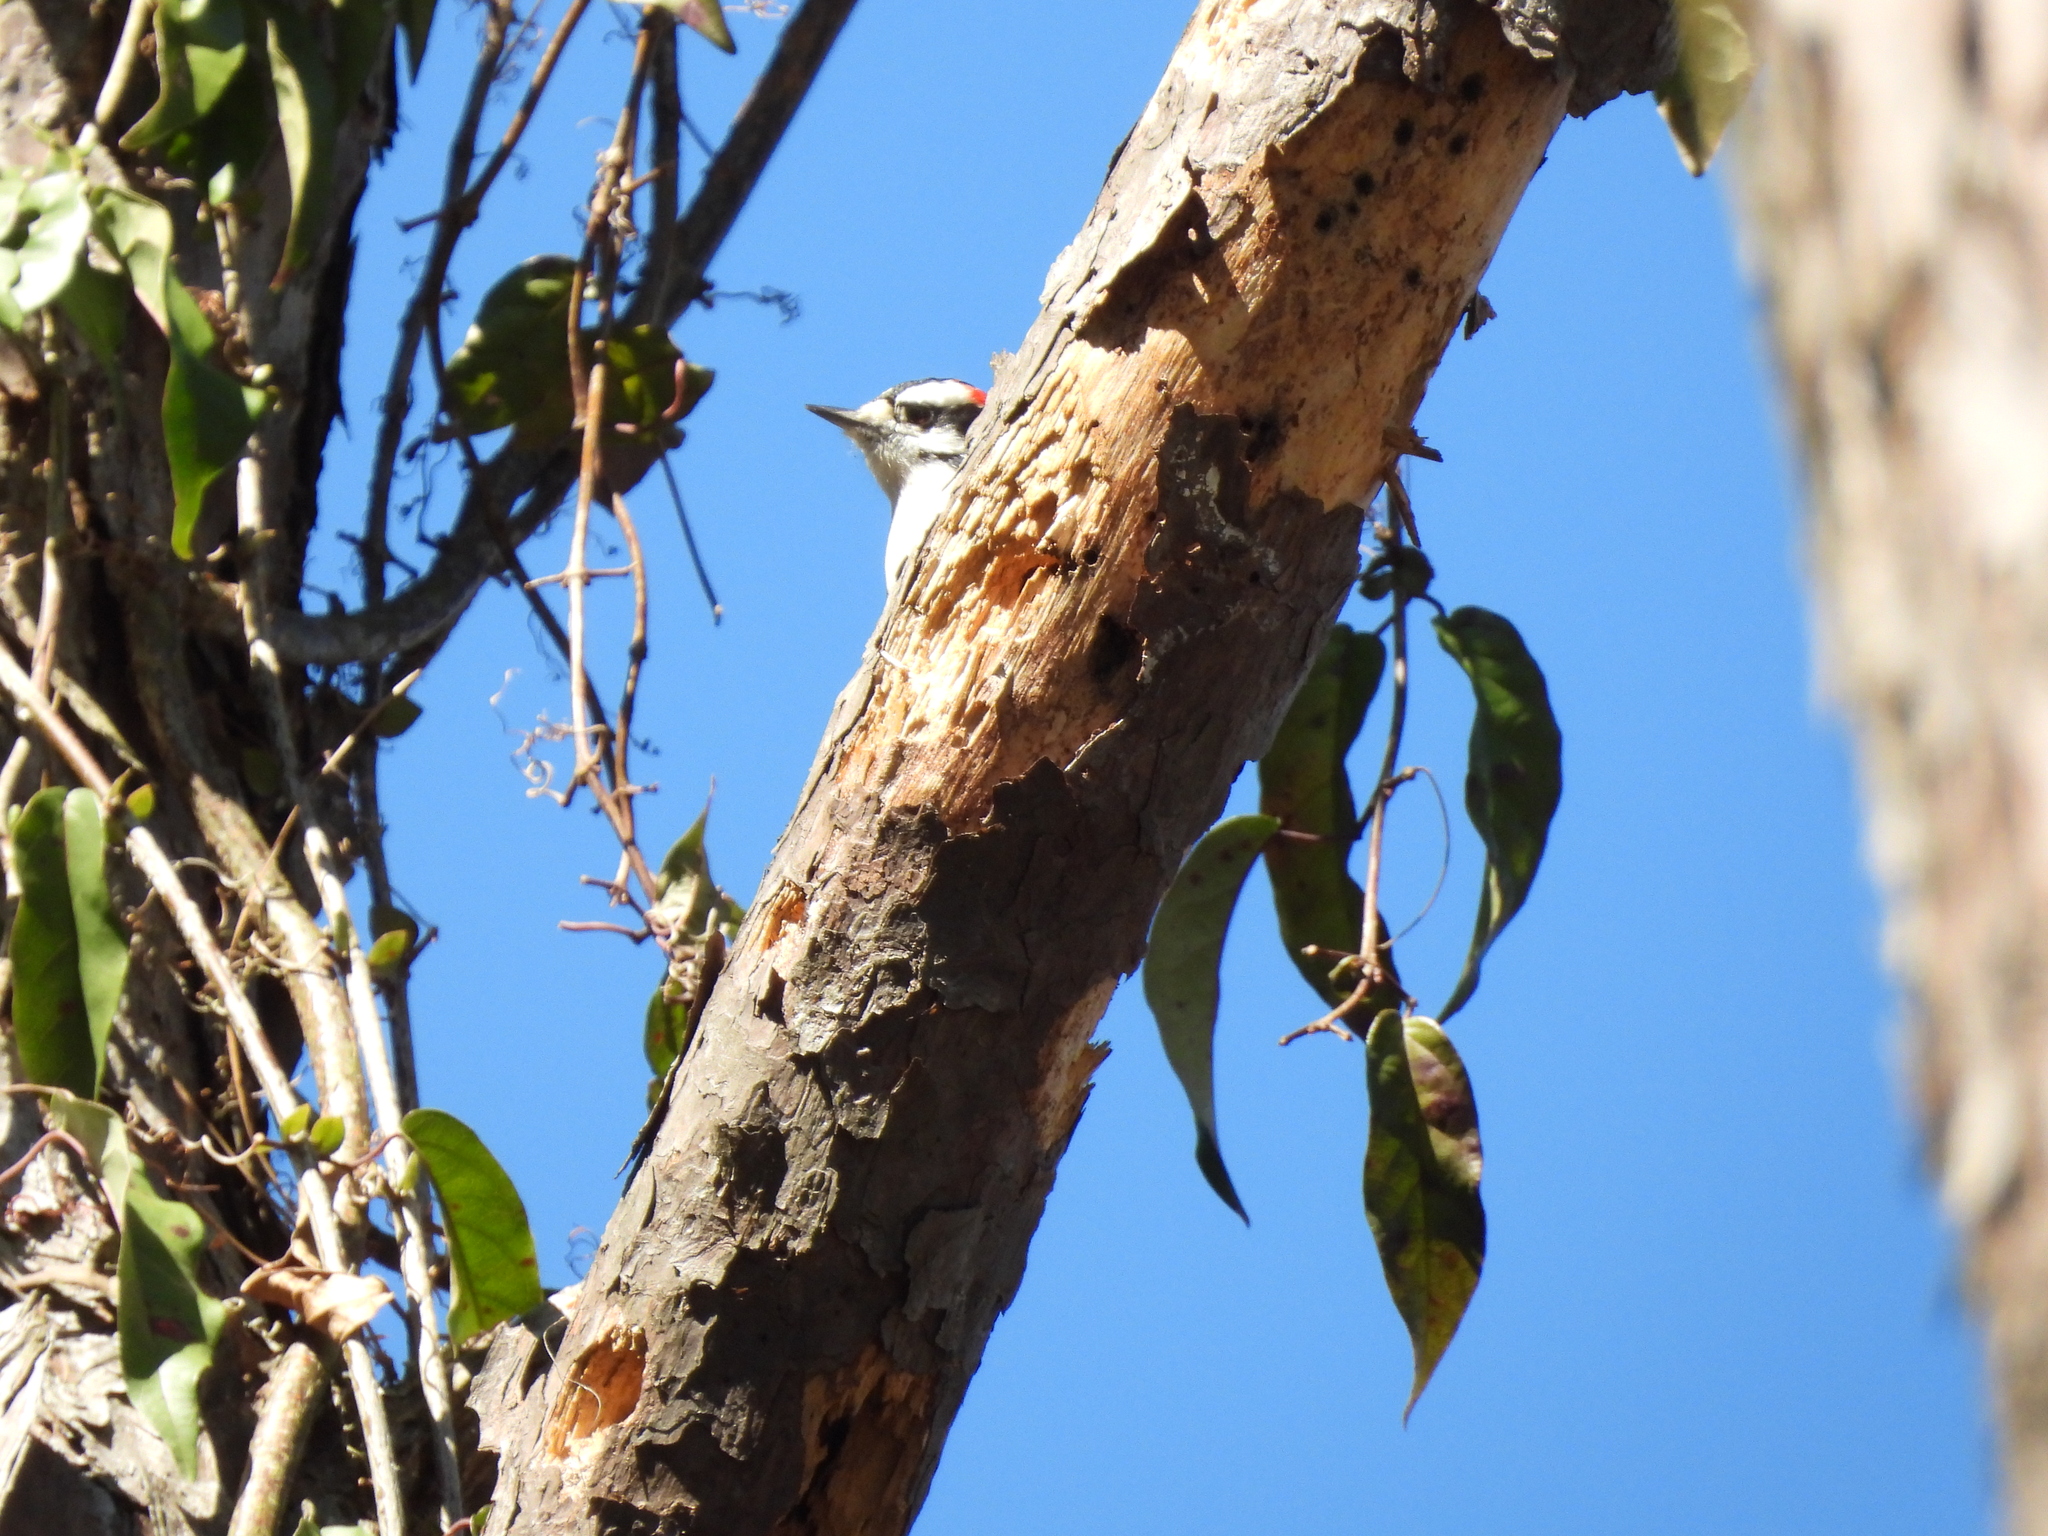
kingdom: Animalia
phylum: Chordata
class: Aves
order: Piciformes
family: Picidae
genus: Dryobates
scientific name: Dryobates pubescens
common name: Downy woodpecker
